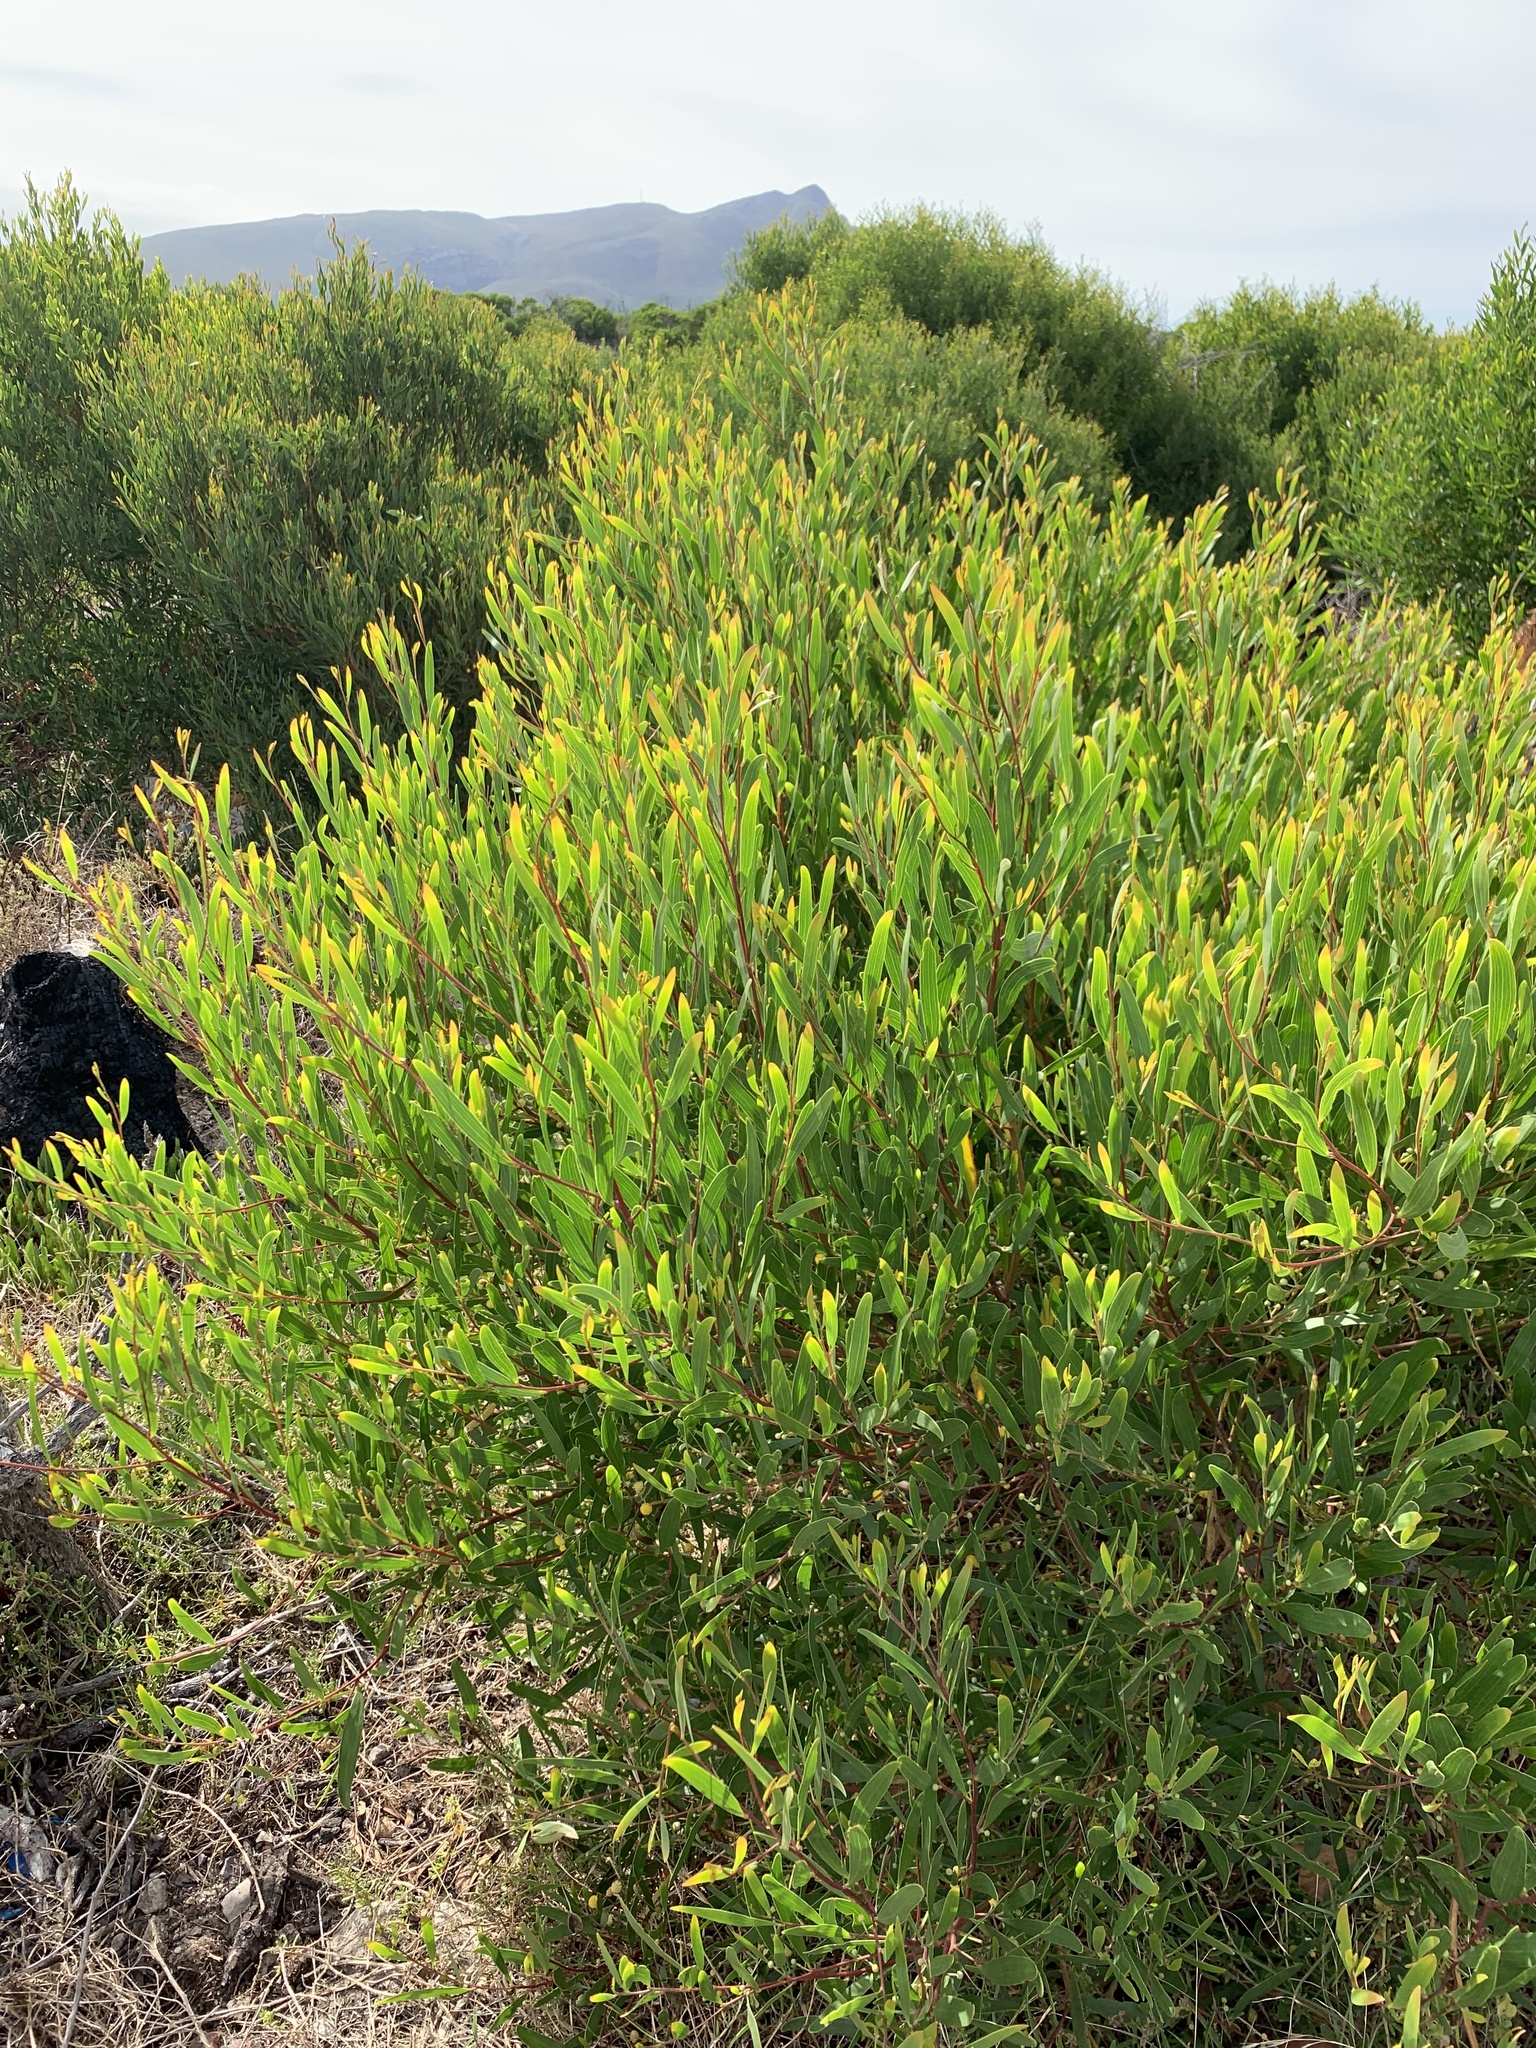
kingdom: Plantae
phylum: Tracheophyta
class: Magnoliopsida
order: Fabales
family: Fabaceae
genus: Acacia
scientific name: Acacia cyclops
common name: Coastal wattle
